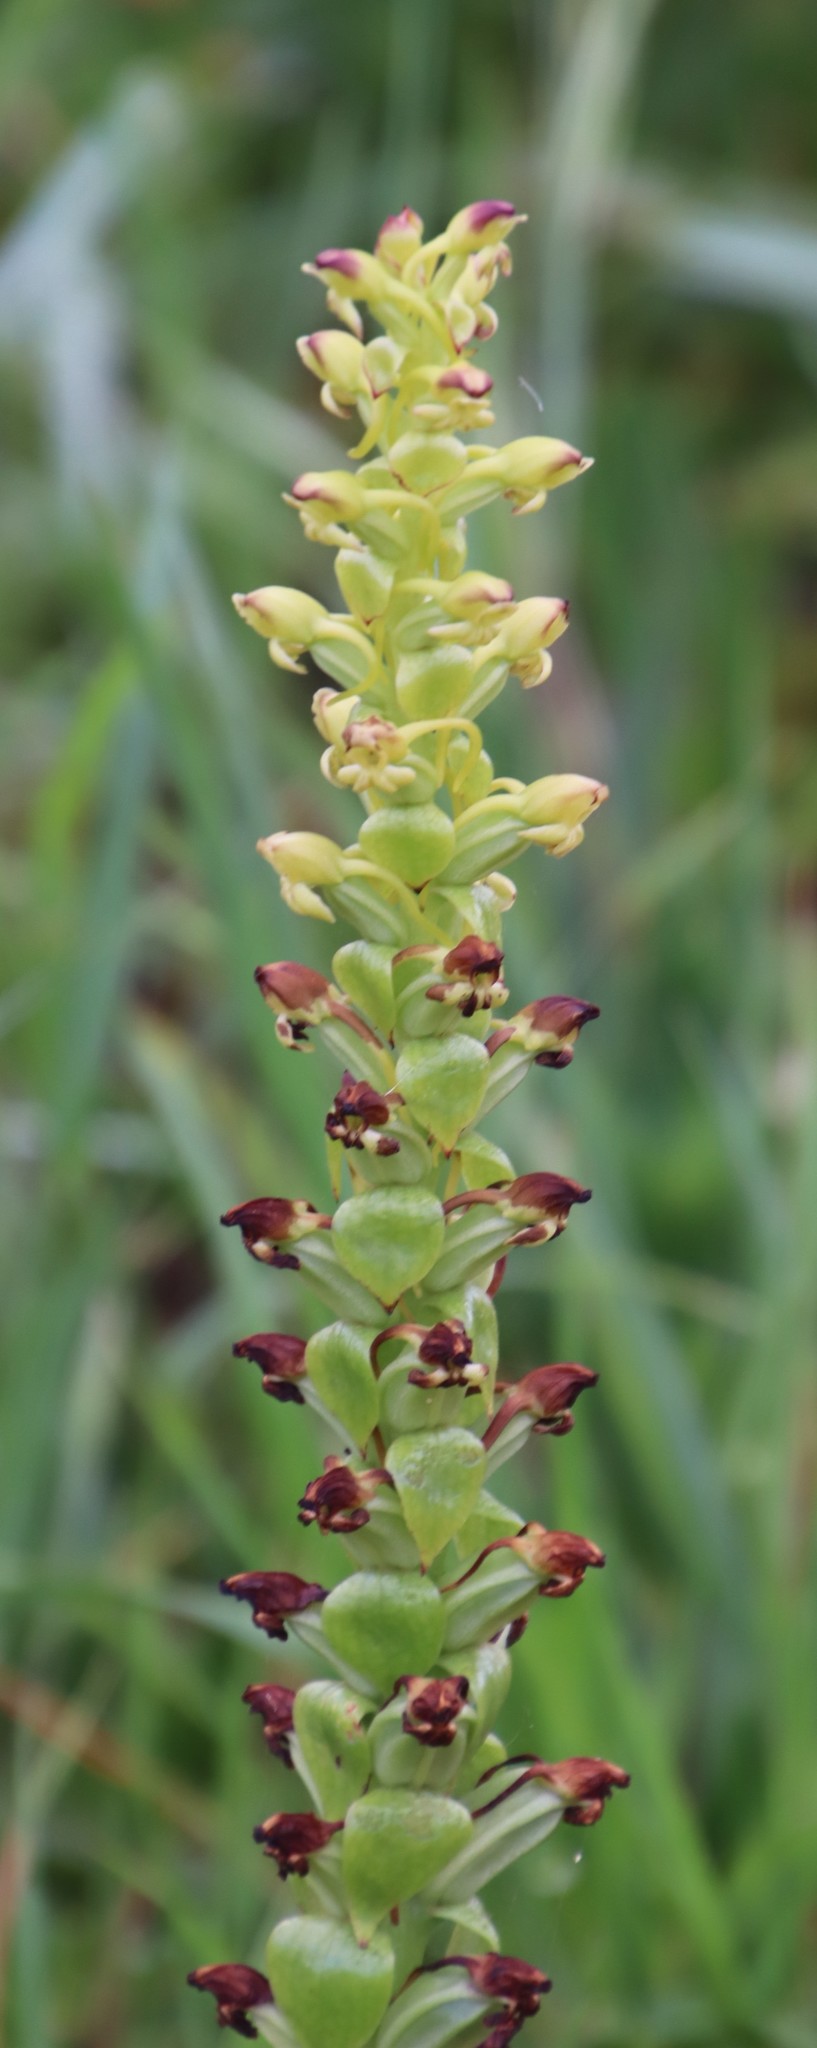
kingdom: Plantae
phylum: Tracheophyta
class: Liliopsida
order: Asparagales
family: Orchidaceae
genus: Satyrium
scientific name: Satyrium odorum
